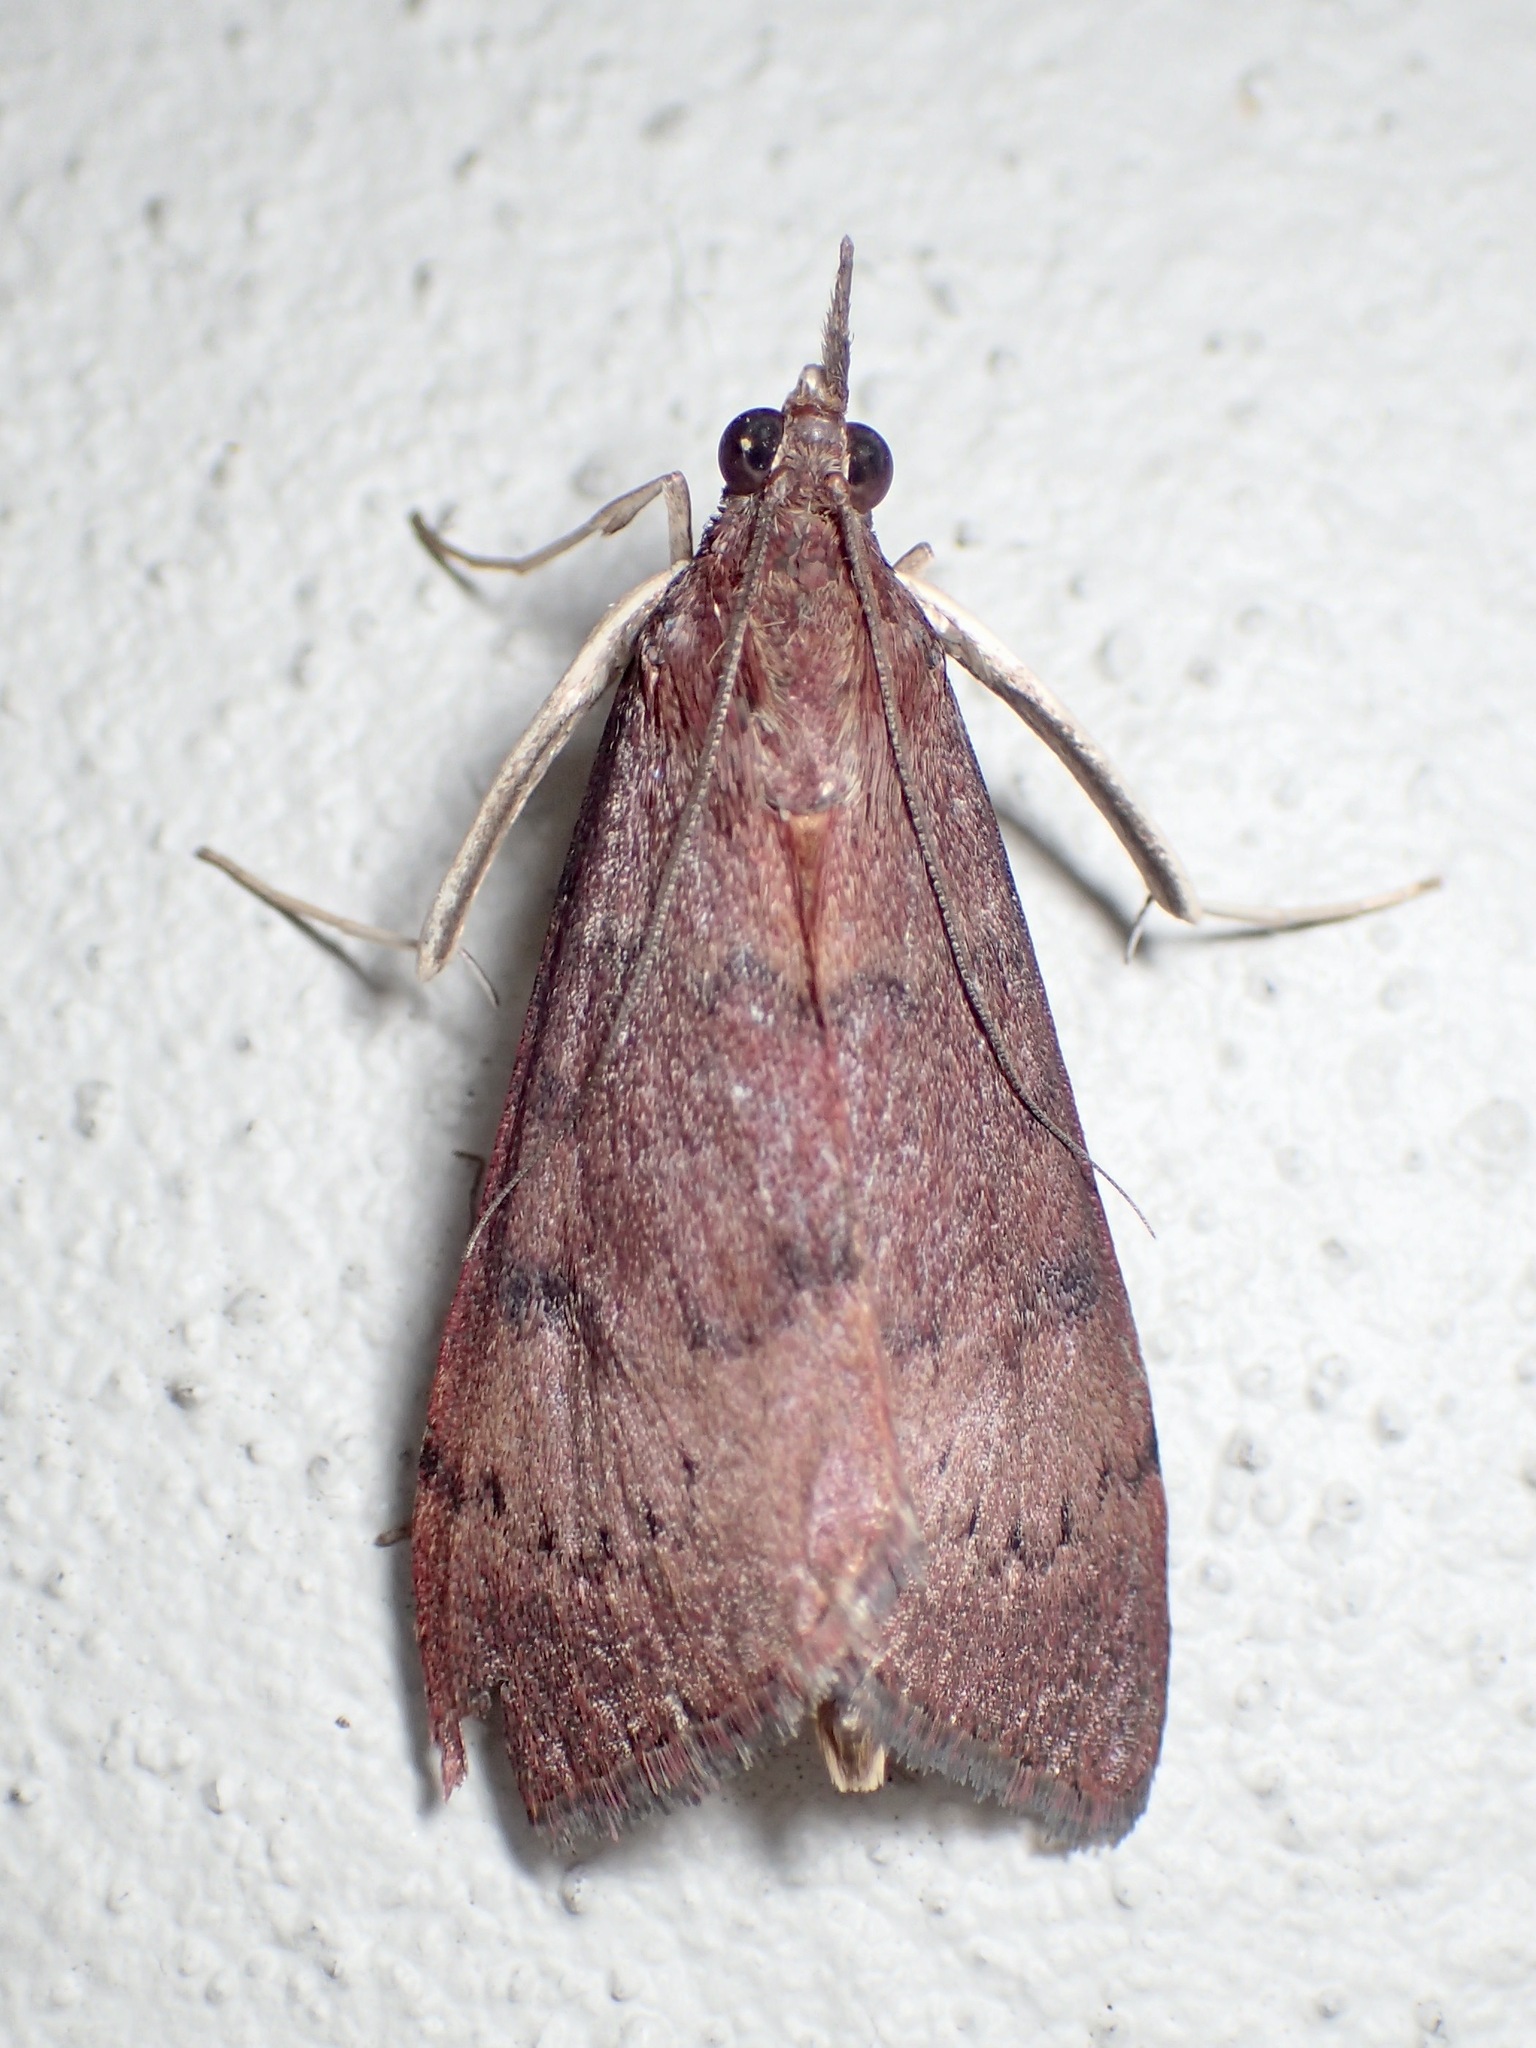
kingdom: Animalia
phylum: Arthropoda
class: Insecta
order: Lepidoptera
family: Crambidae
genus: Uresiphita
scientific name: Uresiphita ornithopteralis
